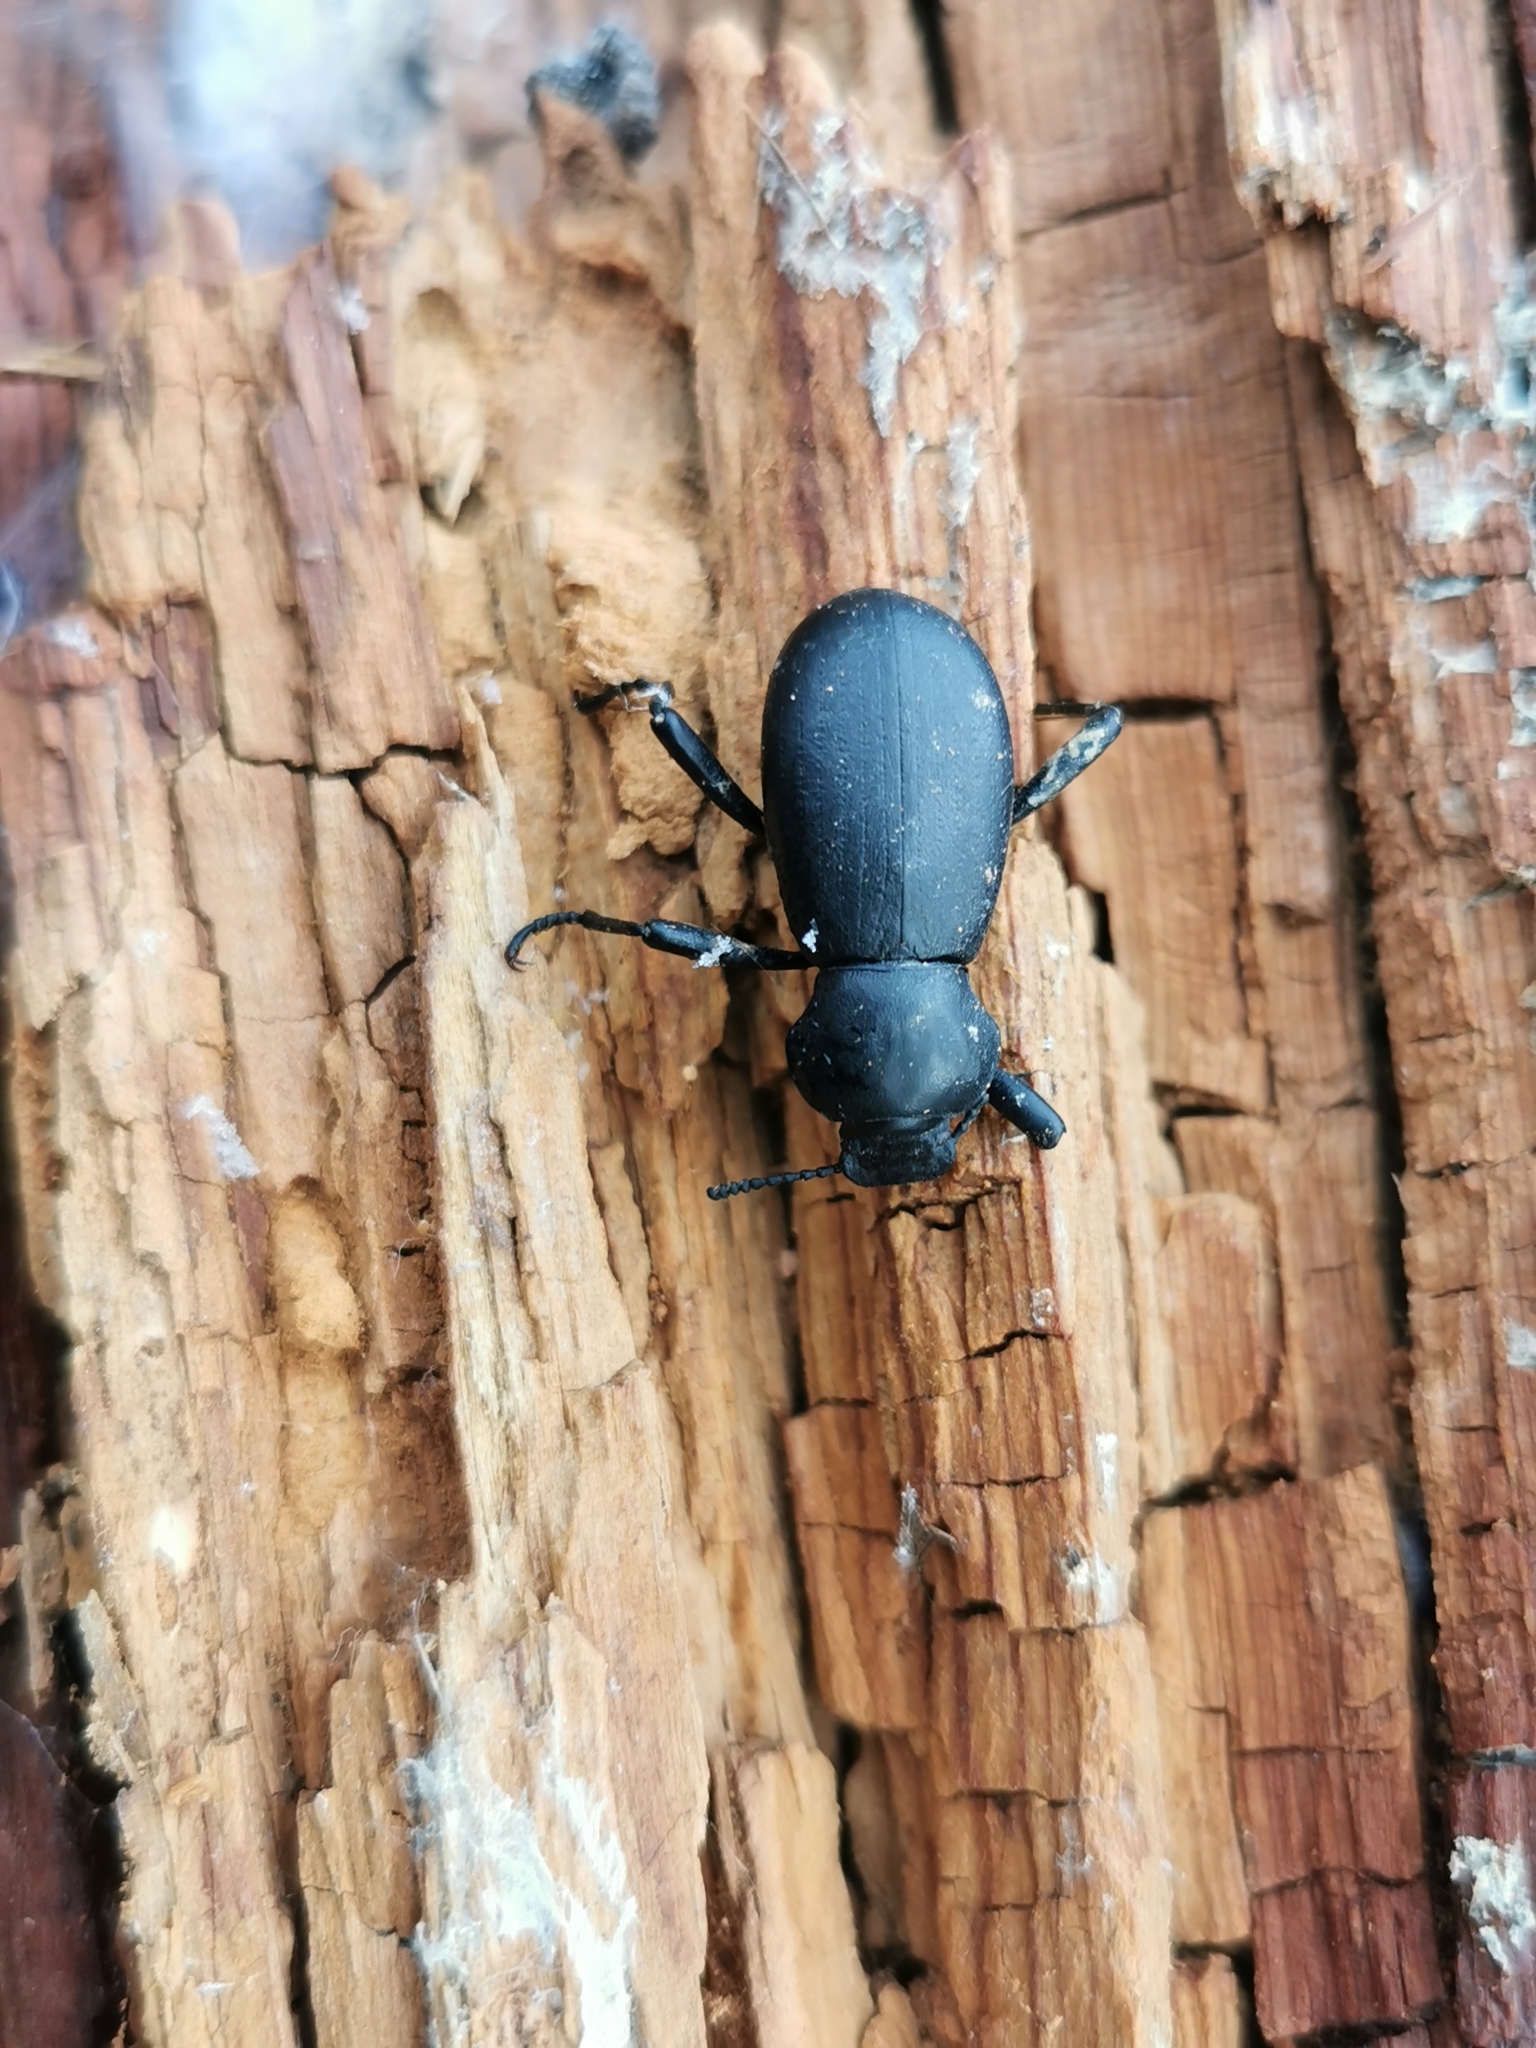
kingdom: Animalia
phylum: Arthropoda
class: Insecta
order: Coleoptera
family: Tenebrionidae
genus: Coelocnemis
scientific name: Coelocnemis dilaticollis
